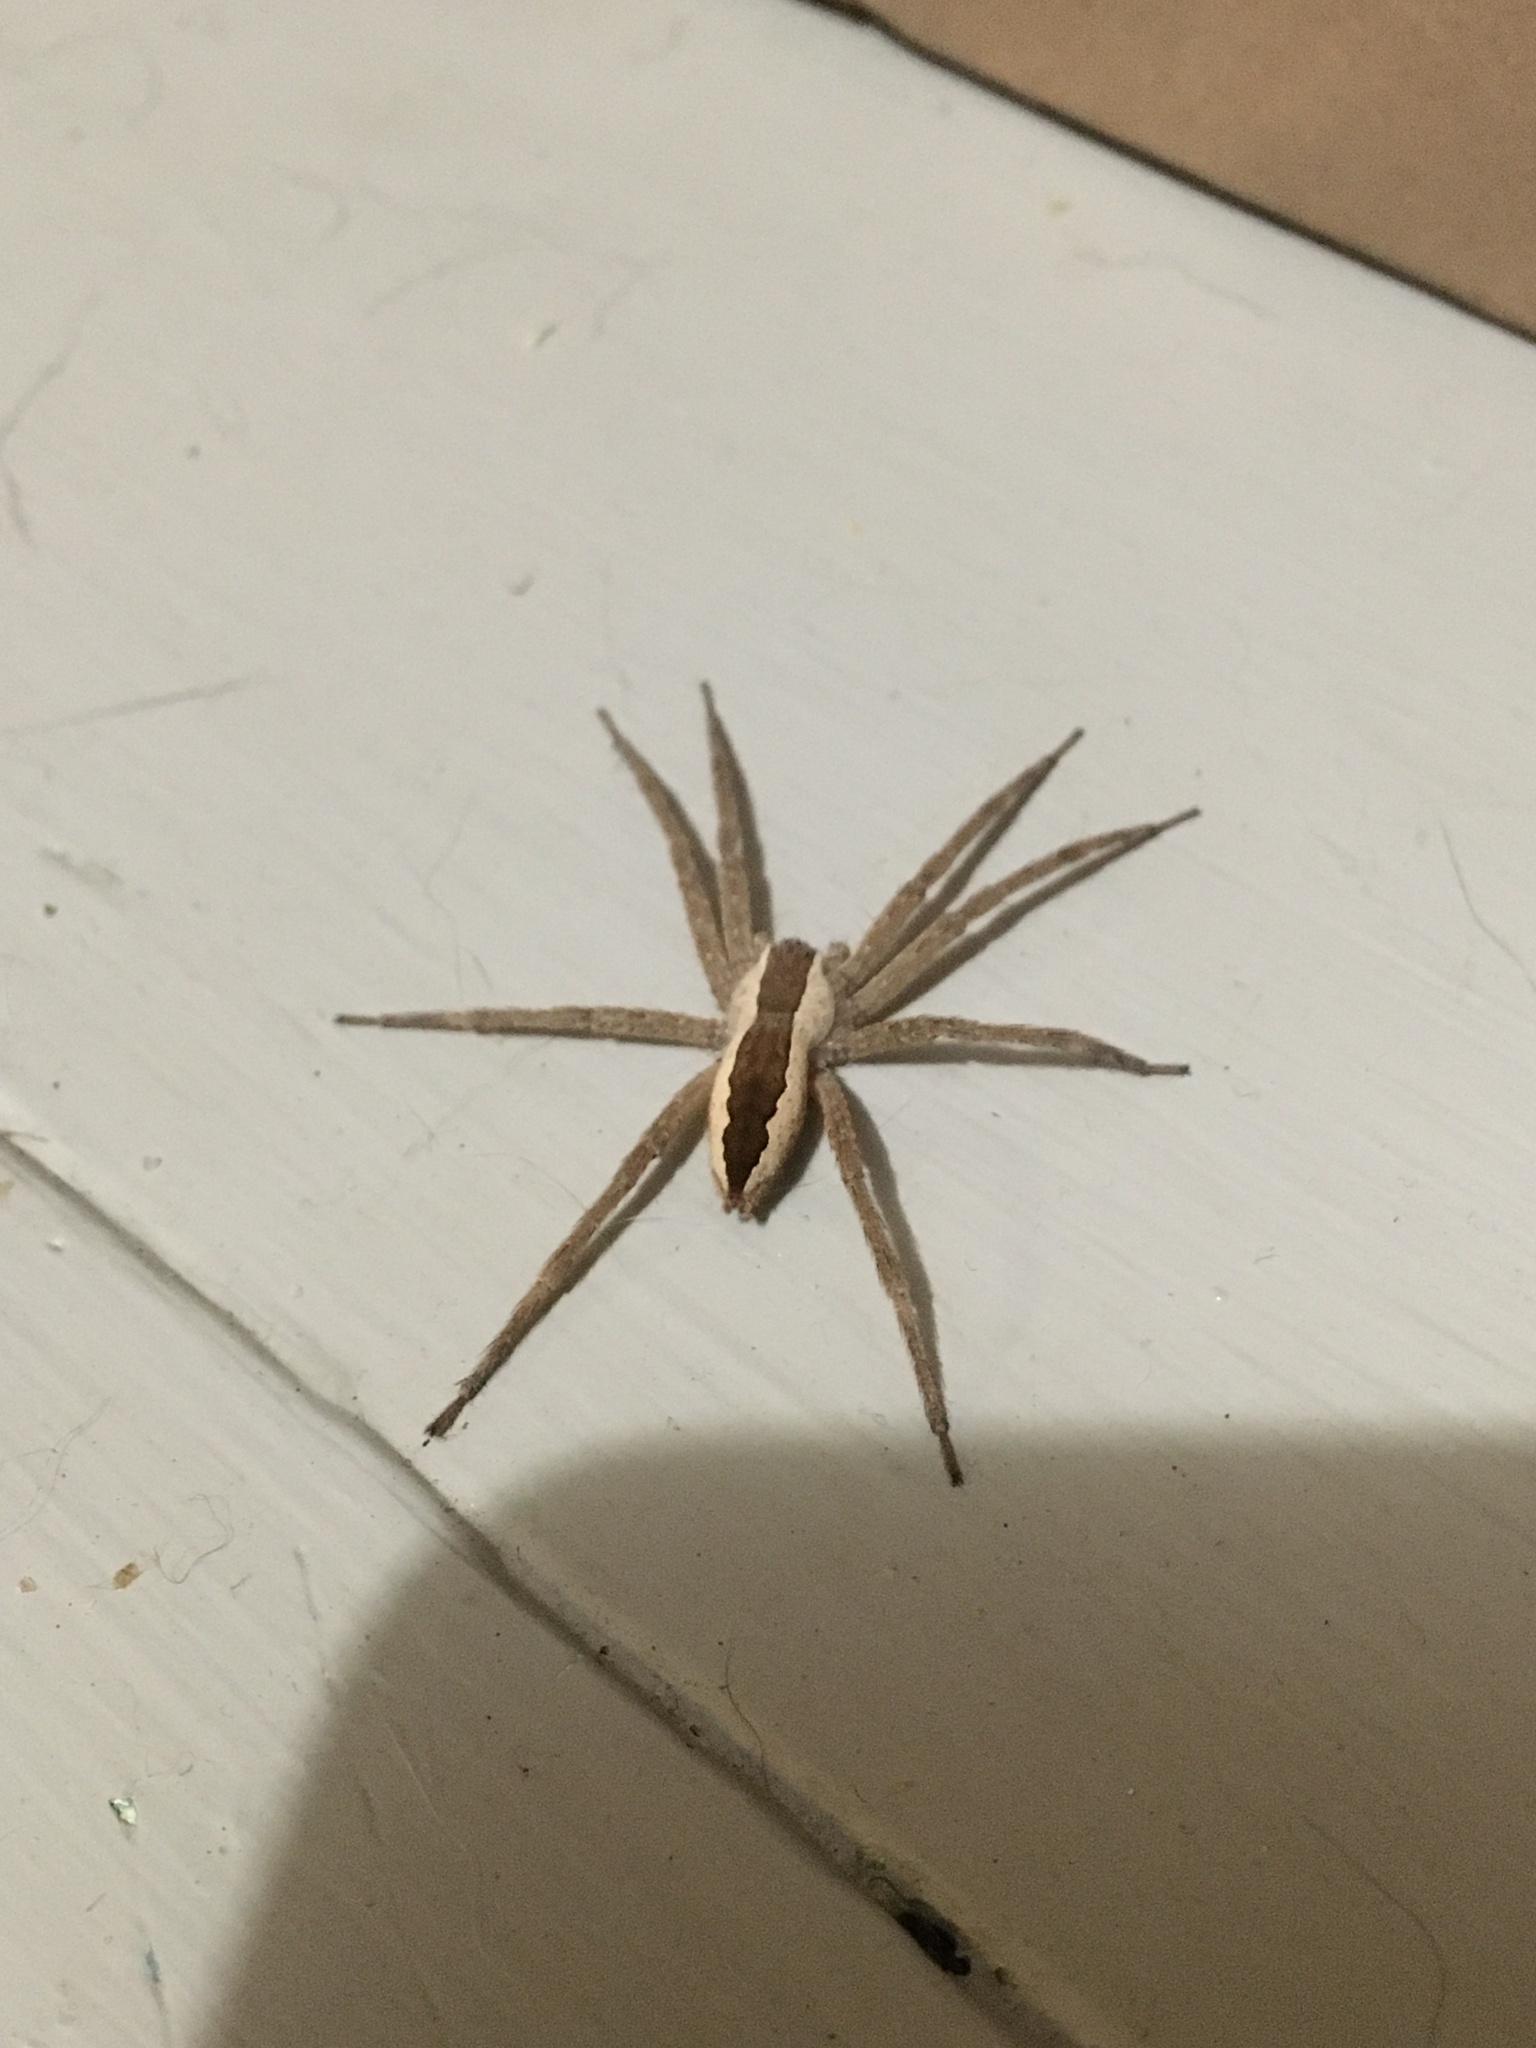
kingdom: Animalia
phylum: Arthropoda
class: Arachnida
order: Araneae
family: Pisauridae
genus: Pisaurina
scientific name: Pisaurina mira
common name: American nursery web spider
